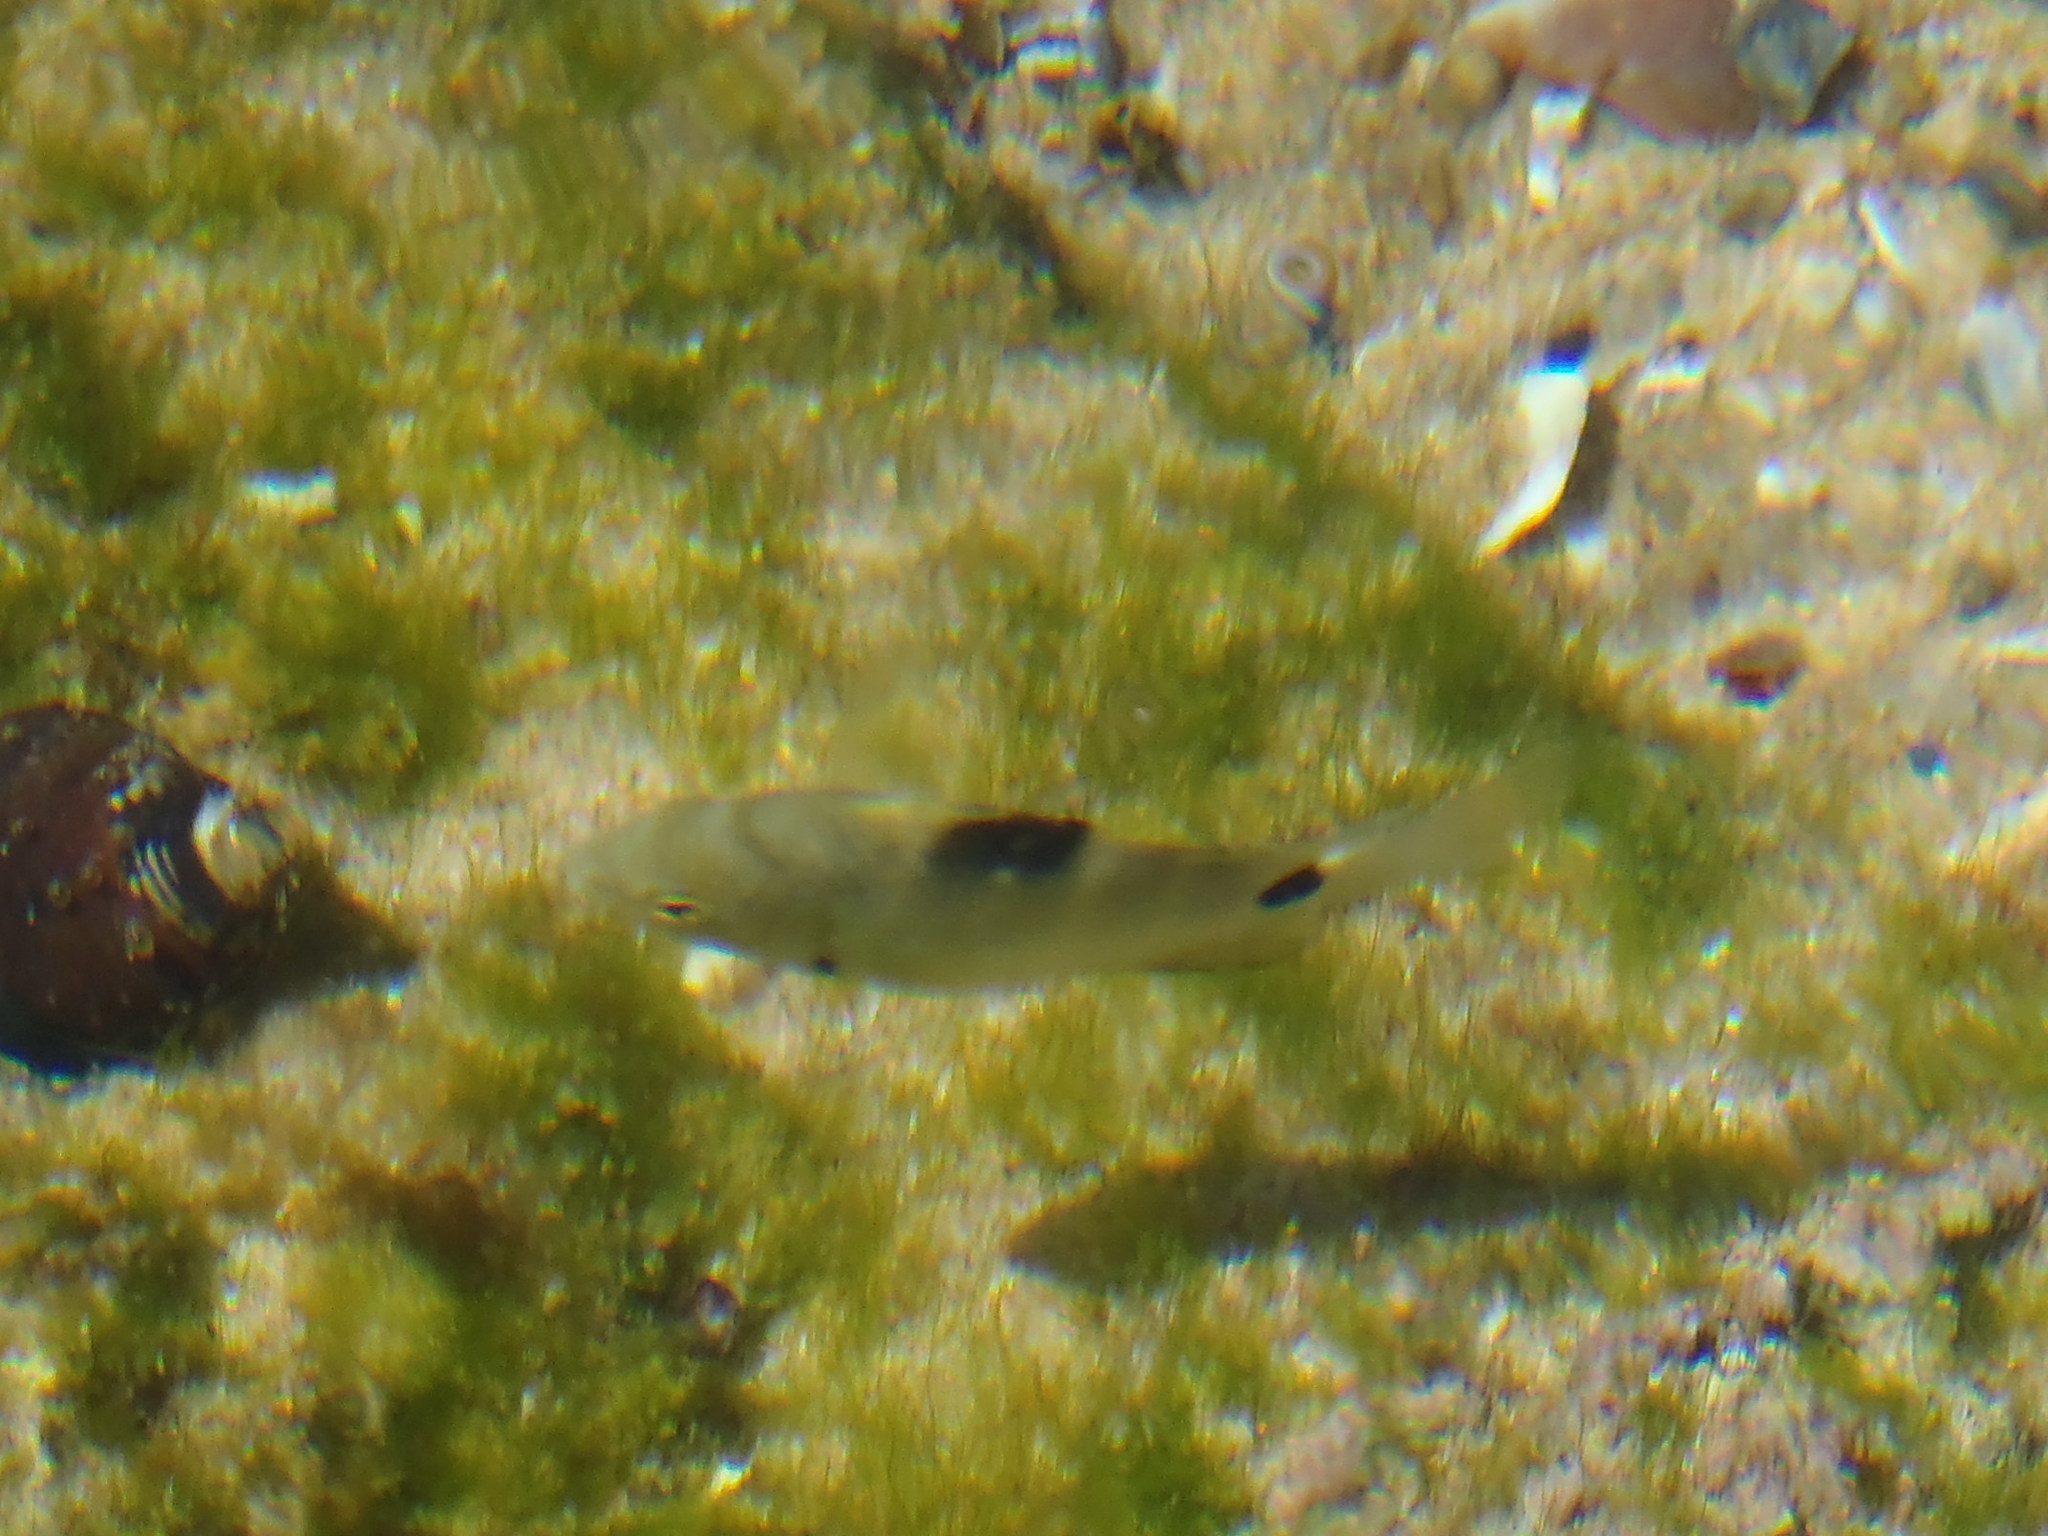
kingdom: Animalia
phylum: Chordata
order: Perciformes
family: Pomacentridae
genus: Abudefduf
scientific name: Abudefduf sordidus
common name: Blackspot sergeant
